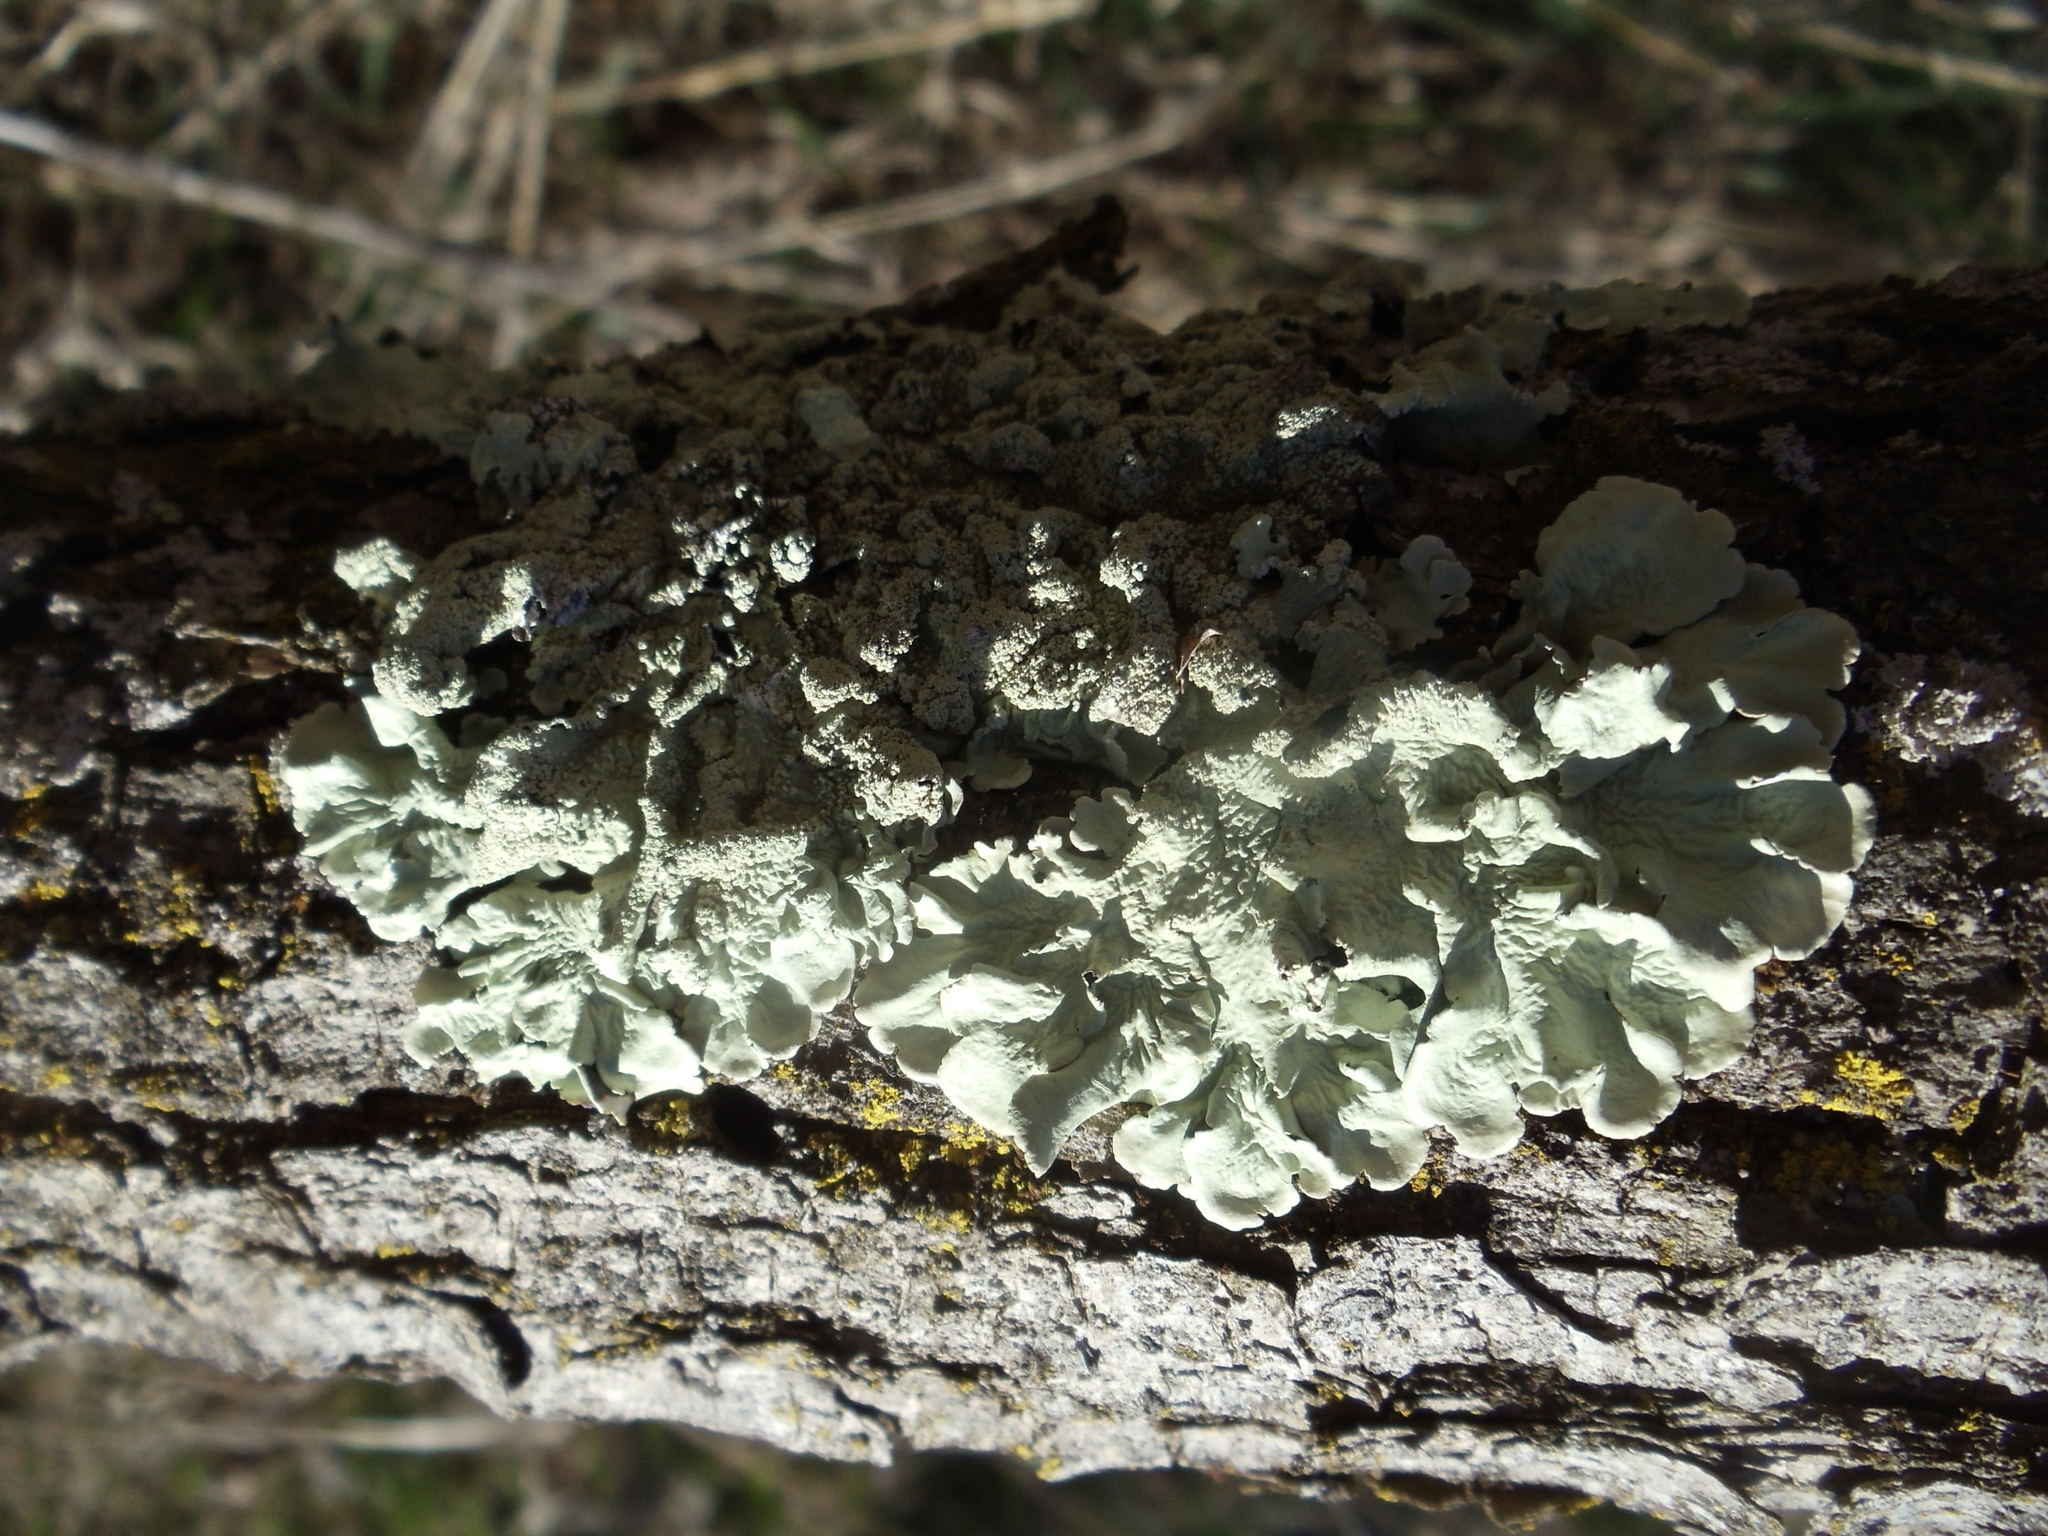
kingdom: Fungi
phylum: Ascomycota
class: Lecanoromycetes
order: Lecanorales
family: Parmeliaceae
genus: Flavoparmelia
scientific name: Flavoparmelia caperata
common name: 40-mile per hour lichen
